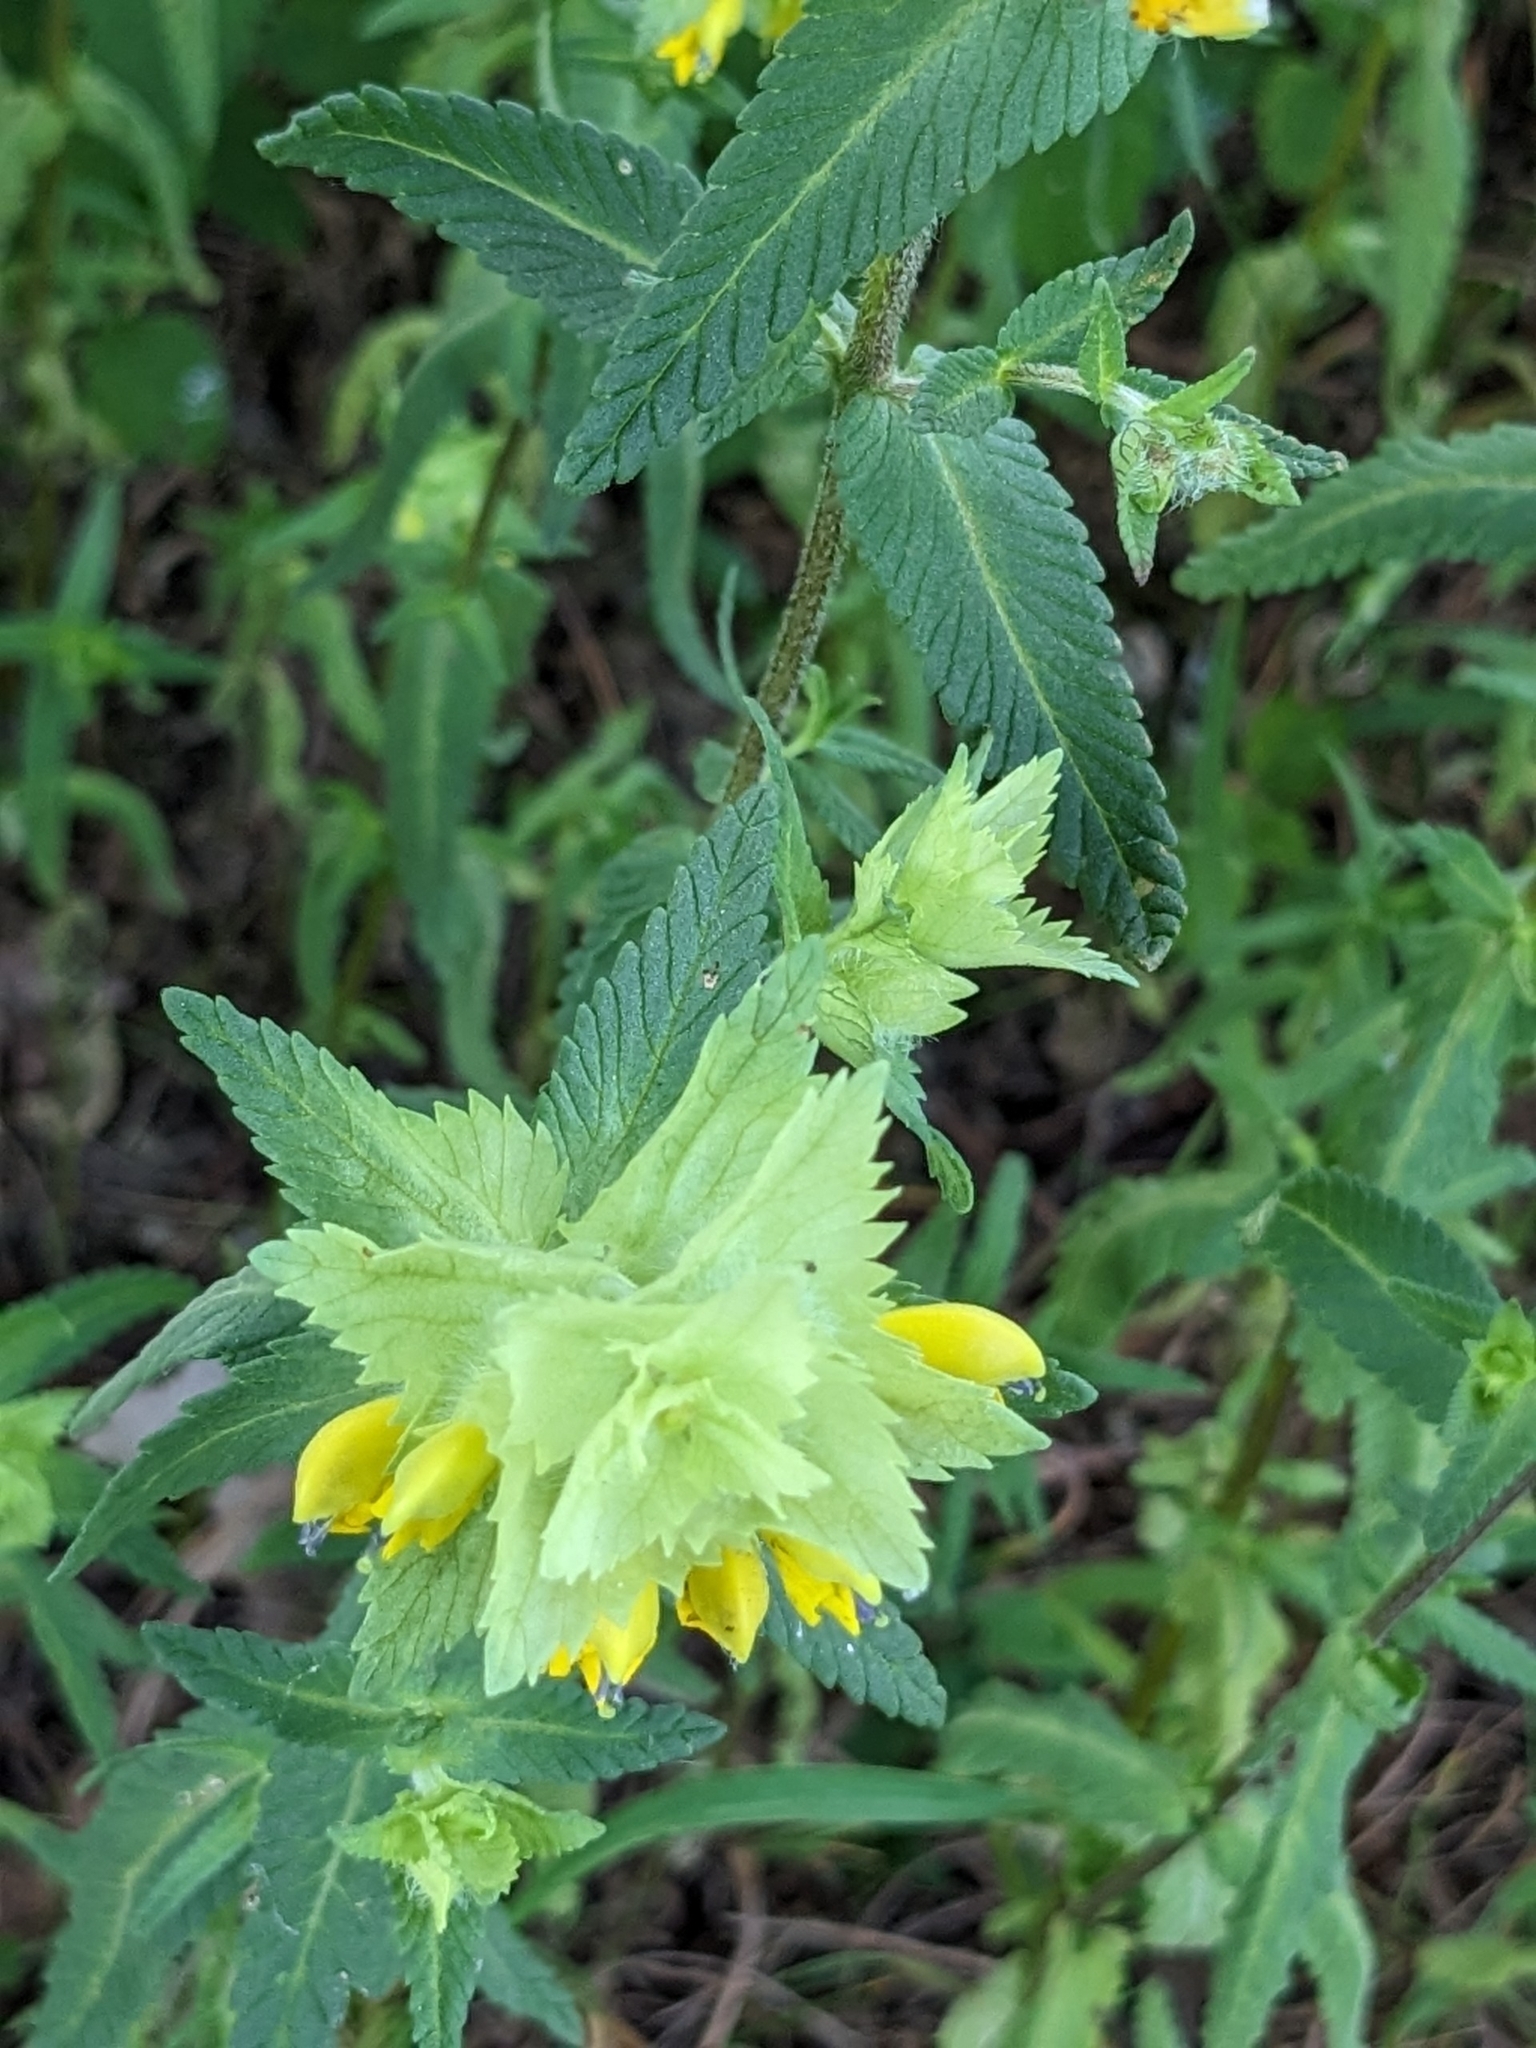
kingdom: Plantae
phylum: Tracheophyta
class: Magnoliopsida
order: Lamiales
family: Orobanchaceae
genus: Rhinanthus
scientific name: Rhinanthus alectorolophus
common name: Greater yellow-rattle
